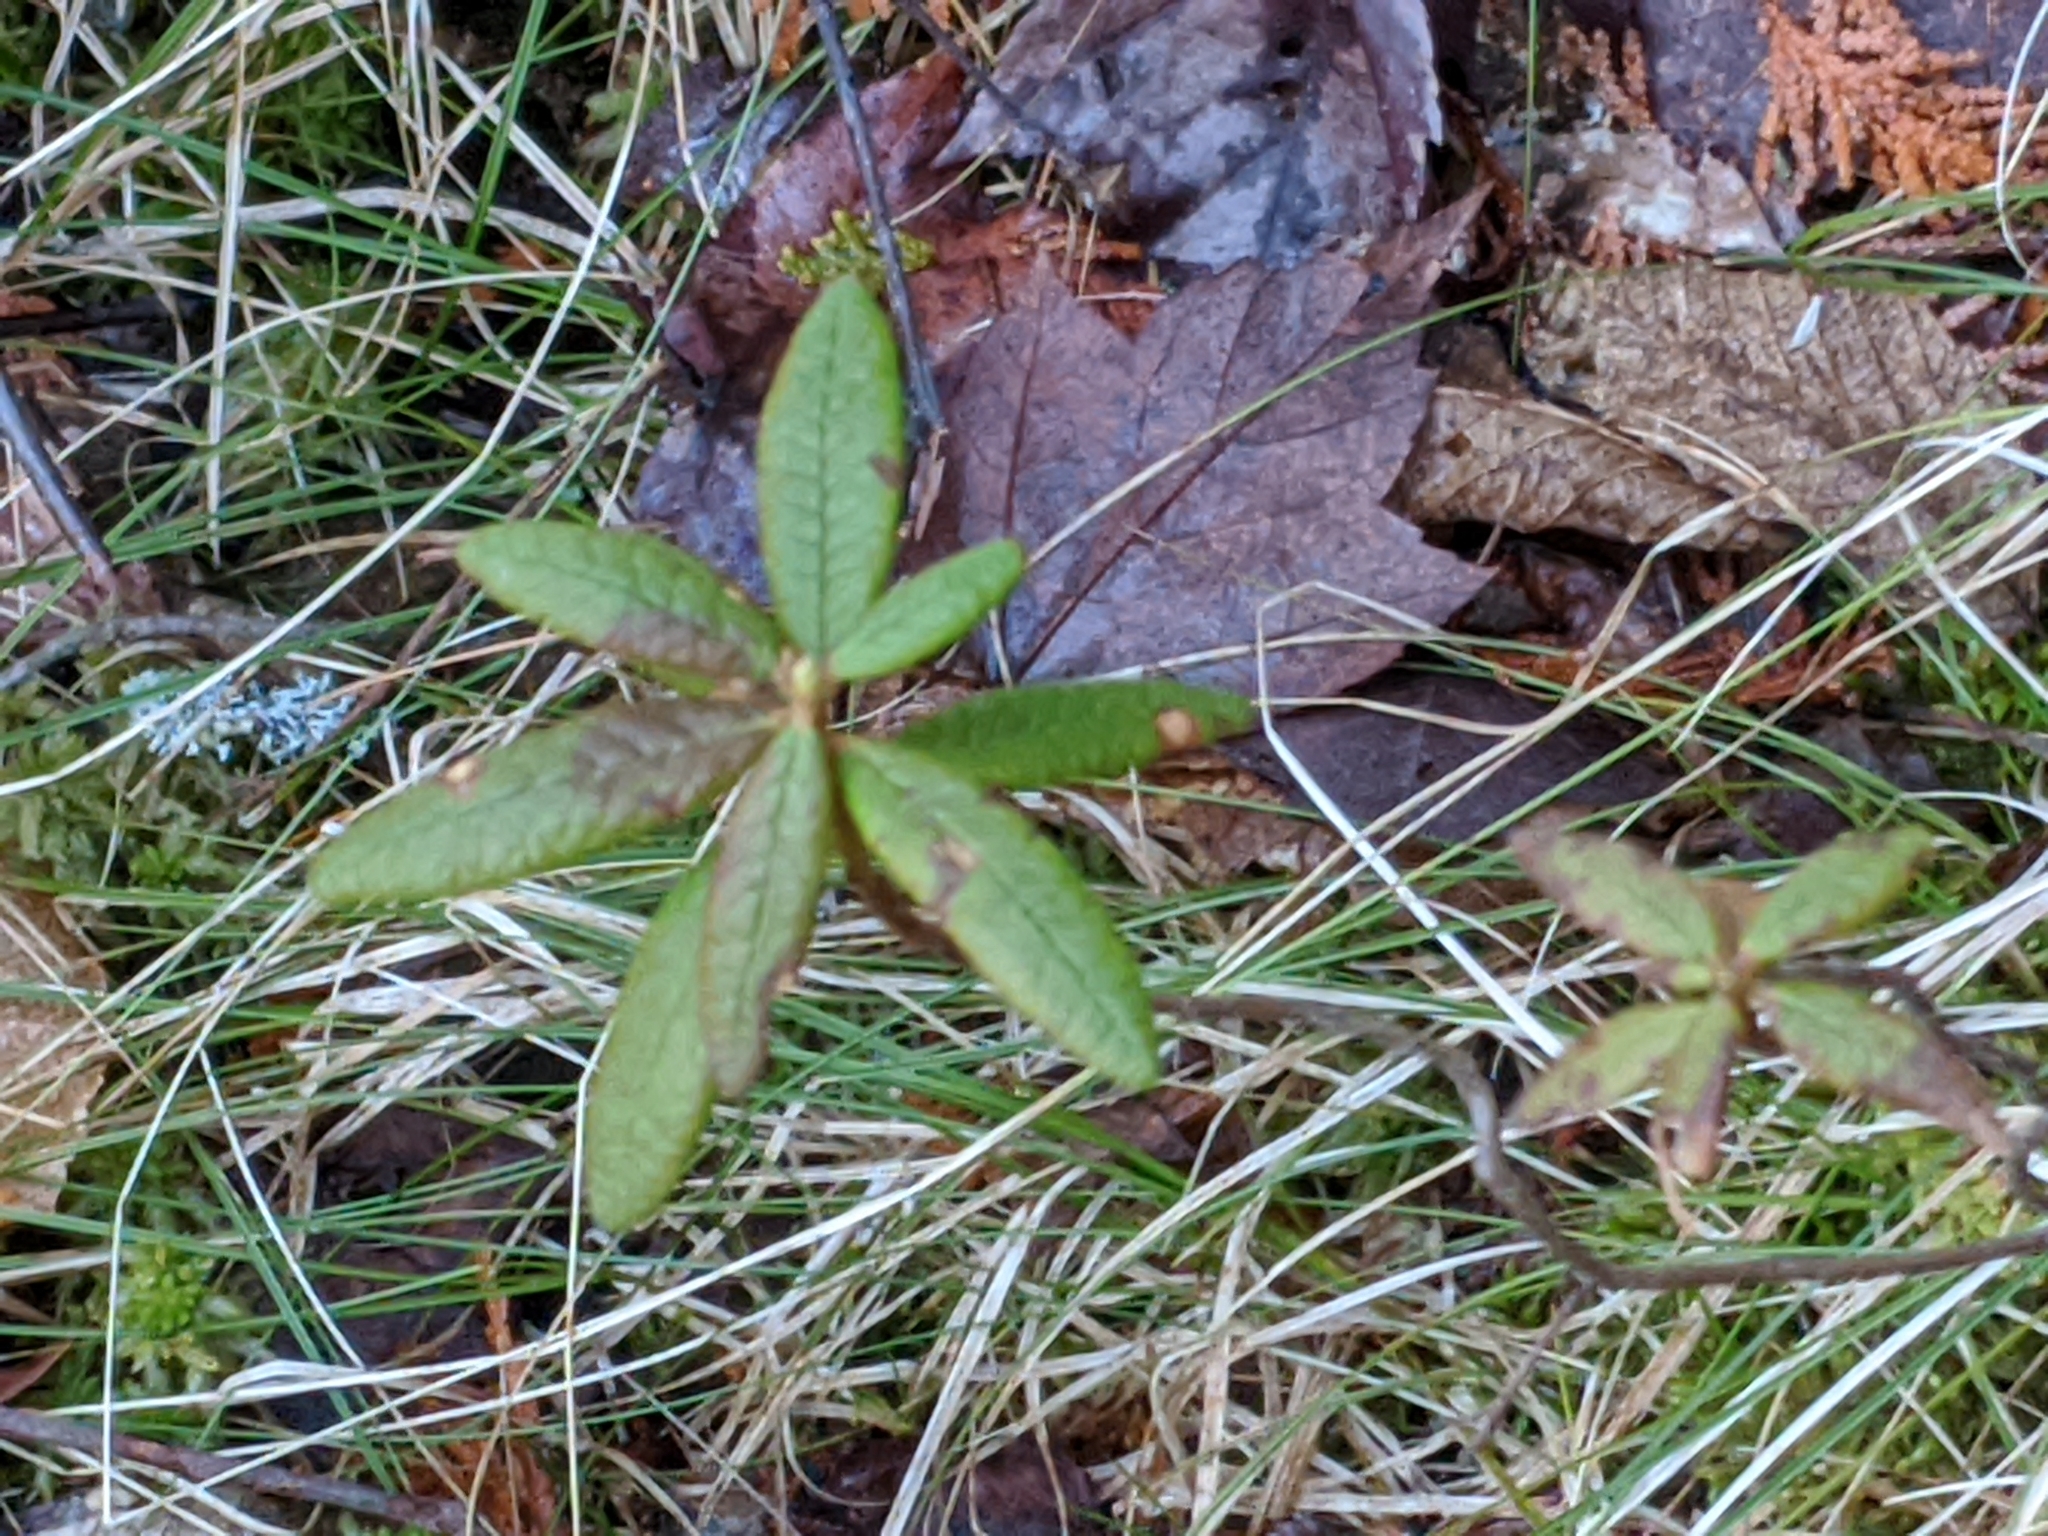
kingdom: Plantae
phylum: Tracheophyta
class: Magnoliopsida
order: Ericales
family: Ericaceae
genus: Rhododendron
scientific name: Rhododendron groenlandicum
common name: Bog labrador tea
